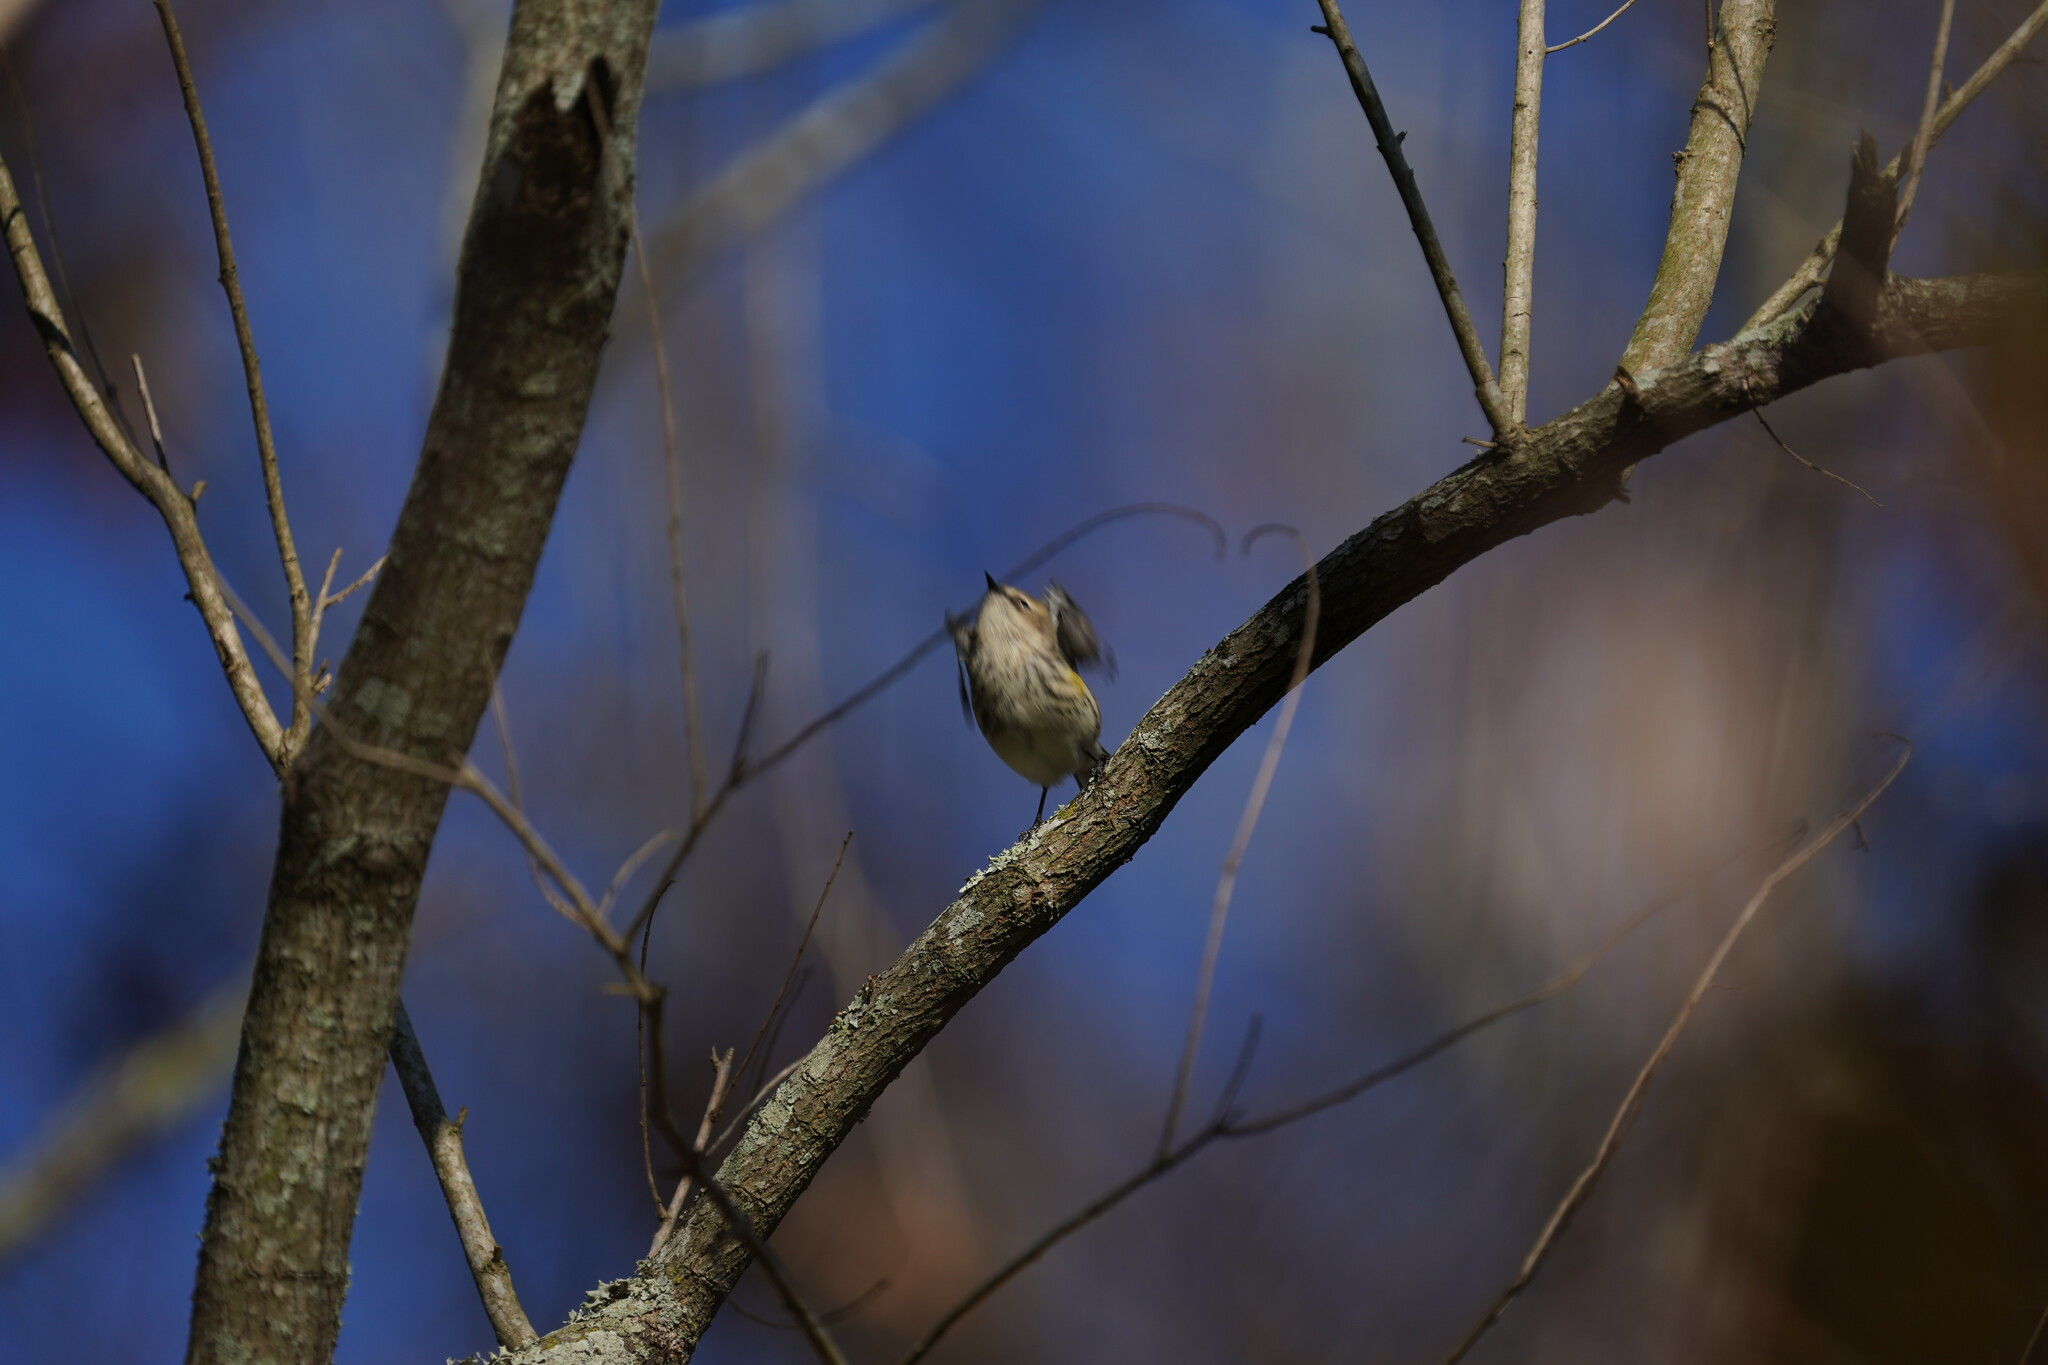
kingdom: Animalia
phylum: Chordata
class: Aves
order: Passeriformes
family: Parulidae
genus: Setophaga
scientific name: Setophaga coronata
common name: Myrtle warbler
